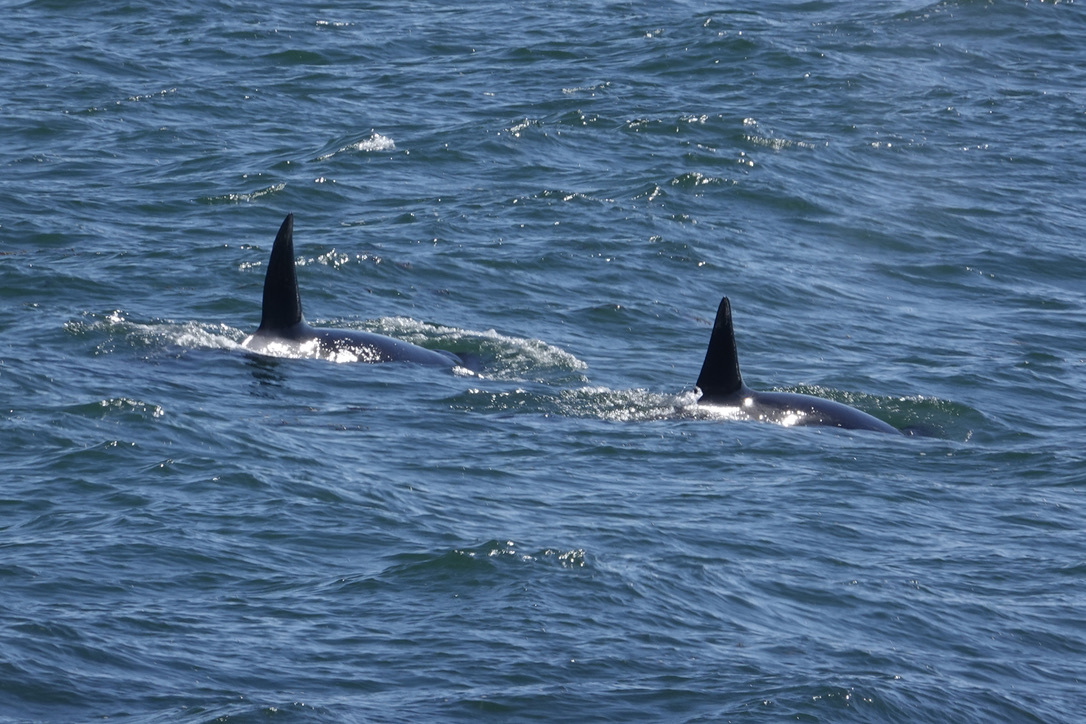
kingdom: Animalia
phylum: Chordata
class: Mammalia
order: Cetacea
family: Delphinidae
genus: Orcinus
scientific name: Orcinus orca
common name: Killer whale
